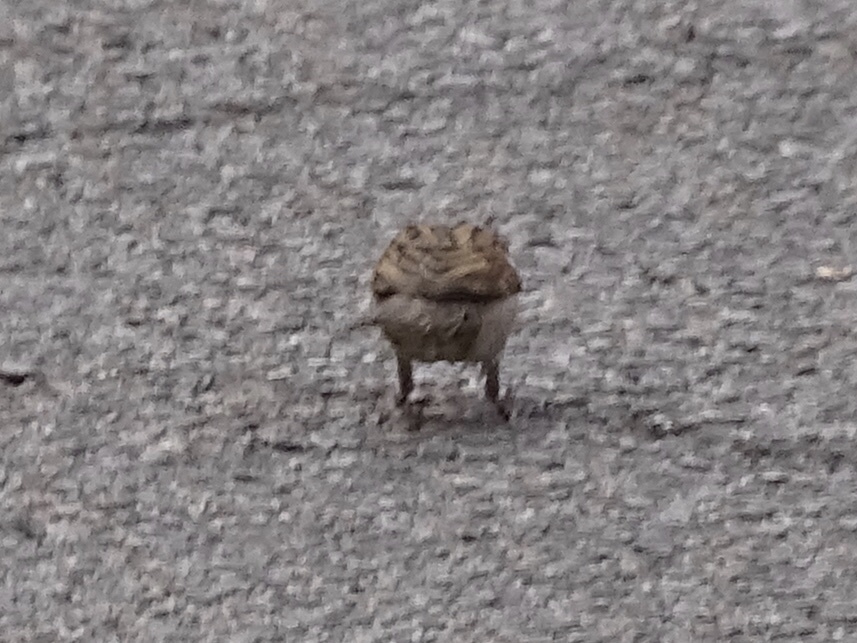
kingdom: Animalia
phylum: Chordata
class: Aves
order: Passeriformes
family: Passeridae
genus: Passer
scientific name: Passer domesticus
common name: House sparrow
